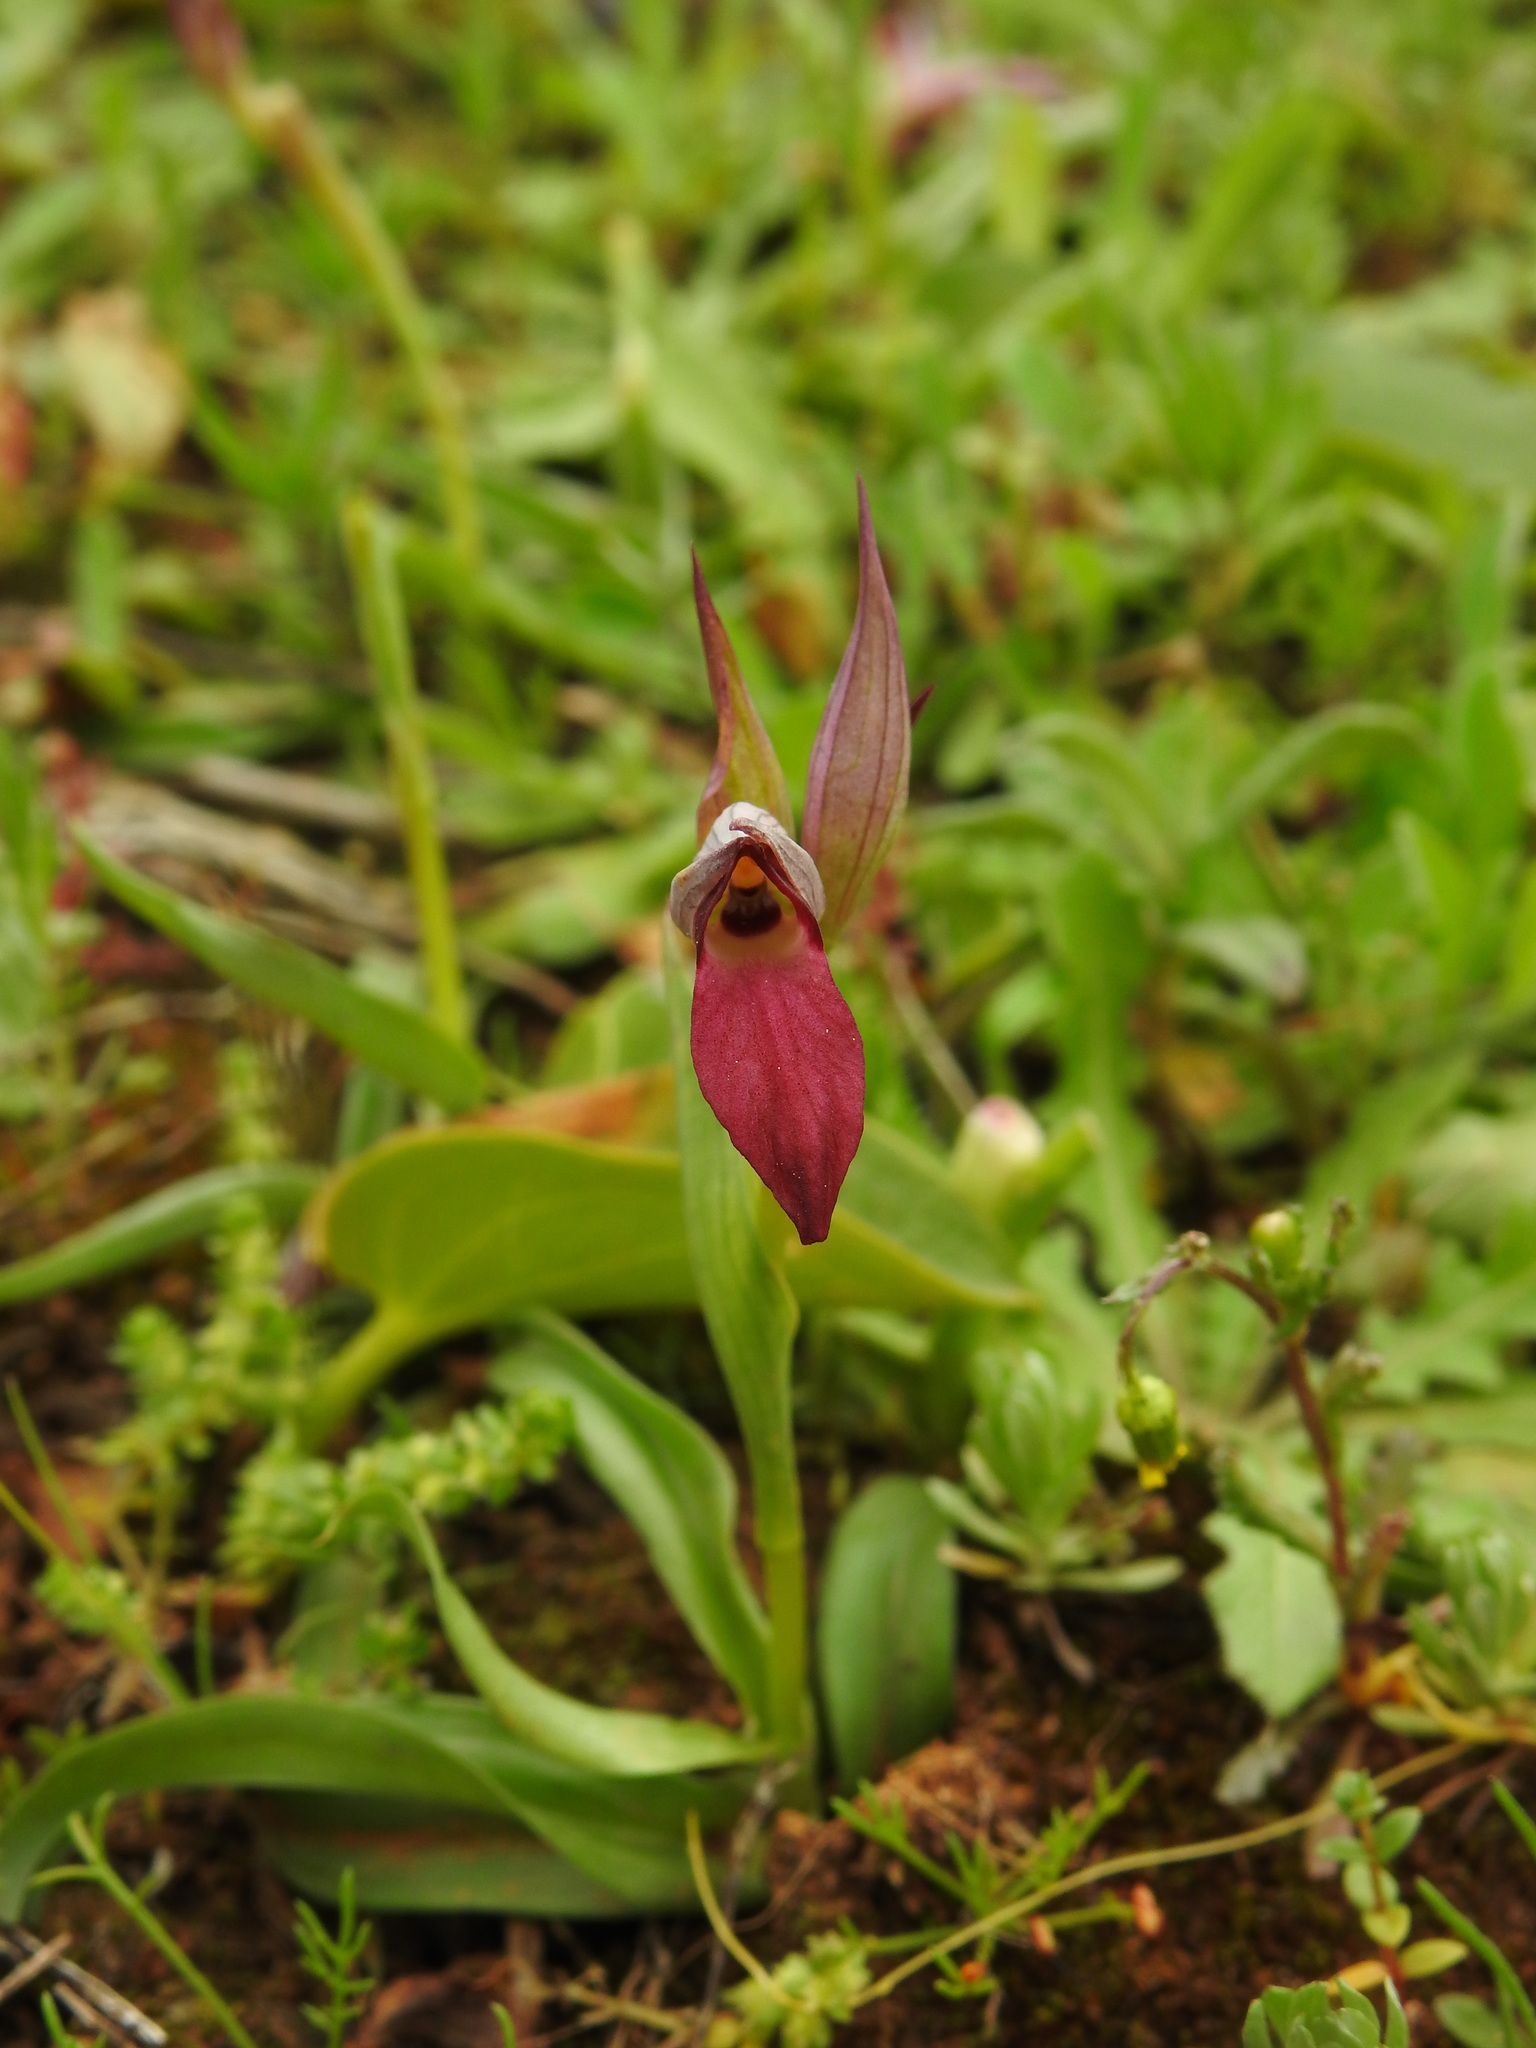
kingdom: Plantae
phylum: Tracheophyta
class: Liliopsida
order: Asparagales
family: Orchidaceae
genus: Serapias
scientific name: Serapias lingua
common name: Tongue-orchid
